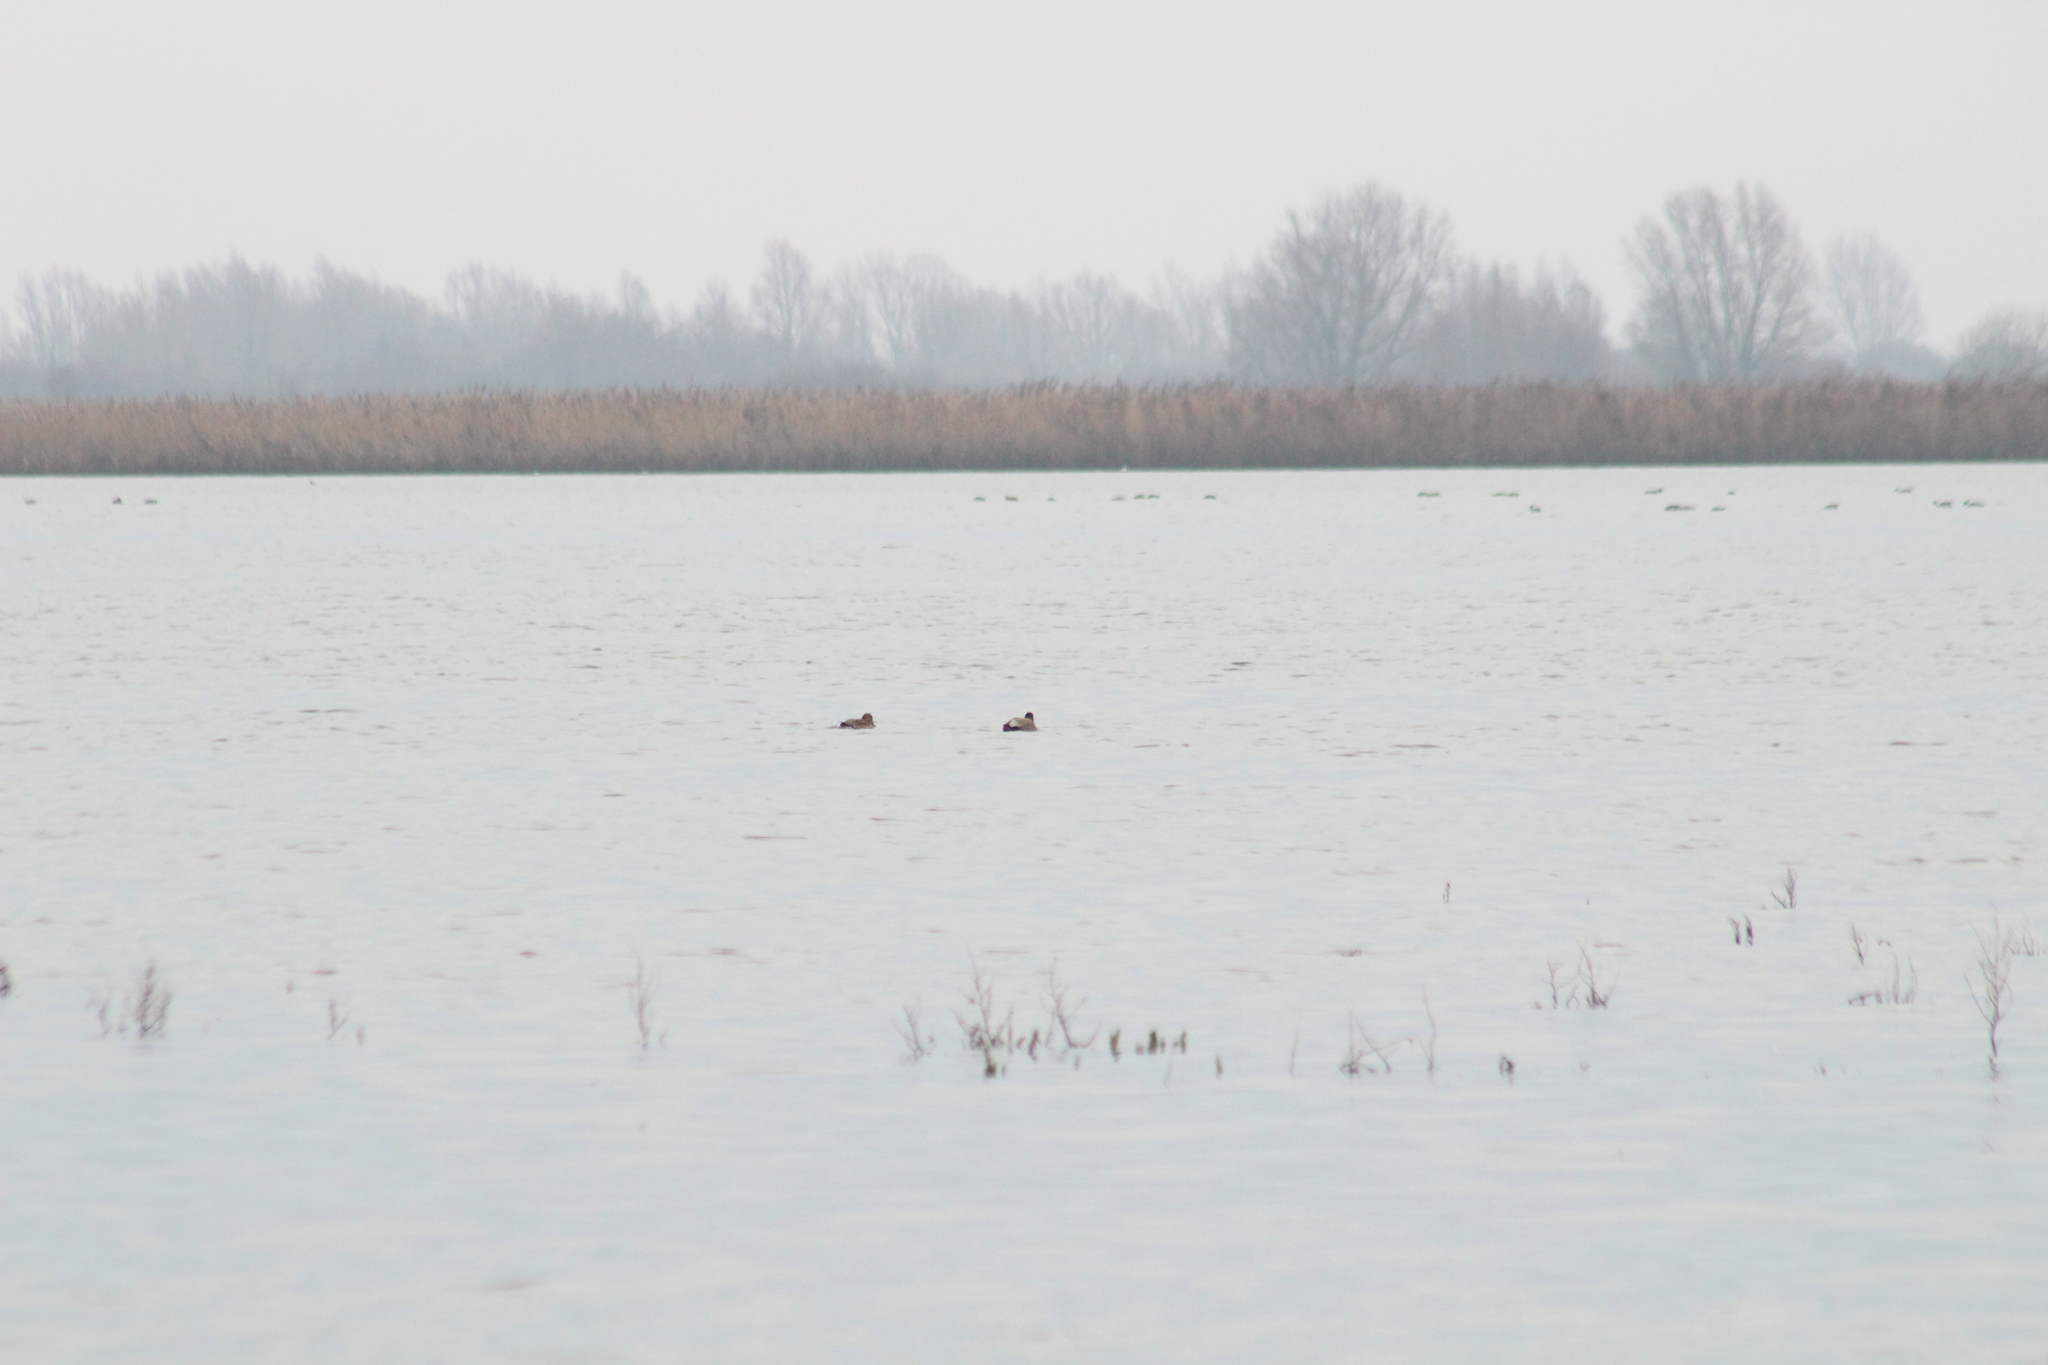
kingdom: Animalia
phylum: Chordata
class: Aves
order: Anseriformes
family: Anatidae
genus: Mareca
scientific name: Mareca strepera
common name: Gadwall
